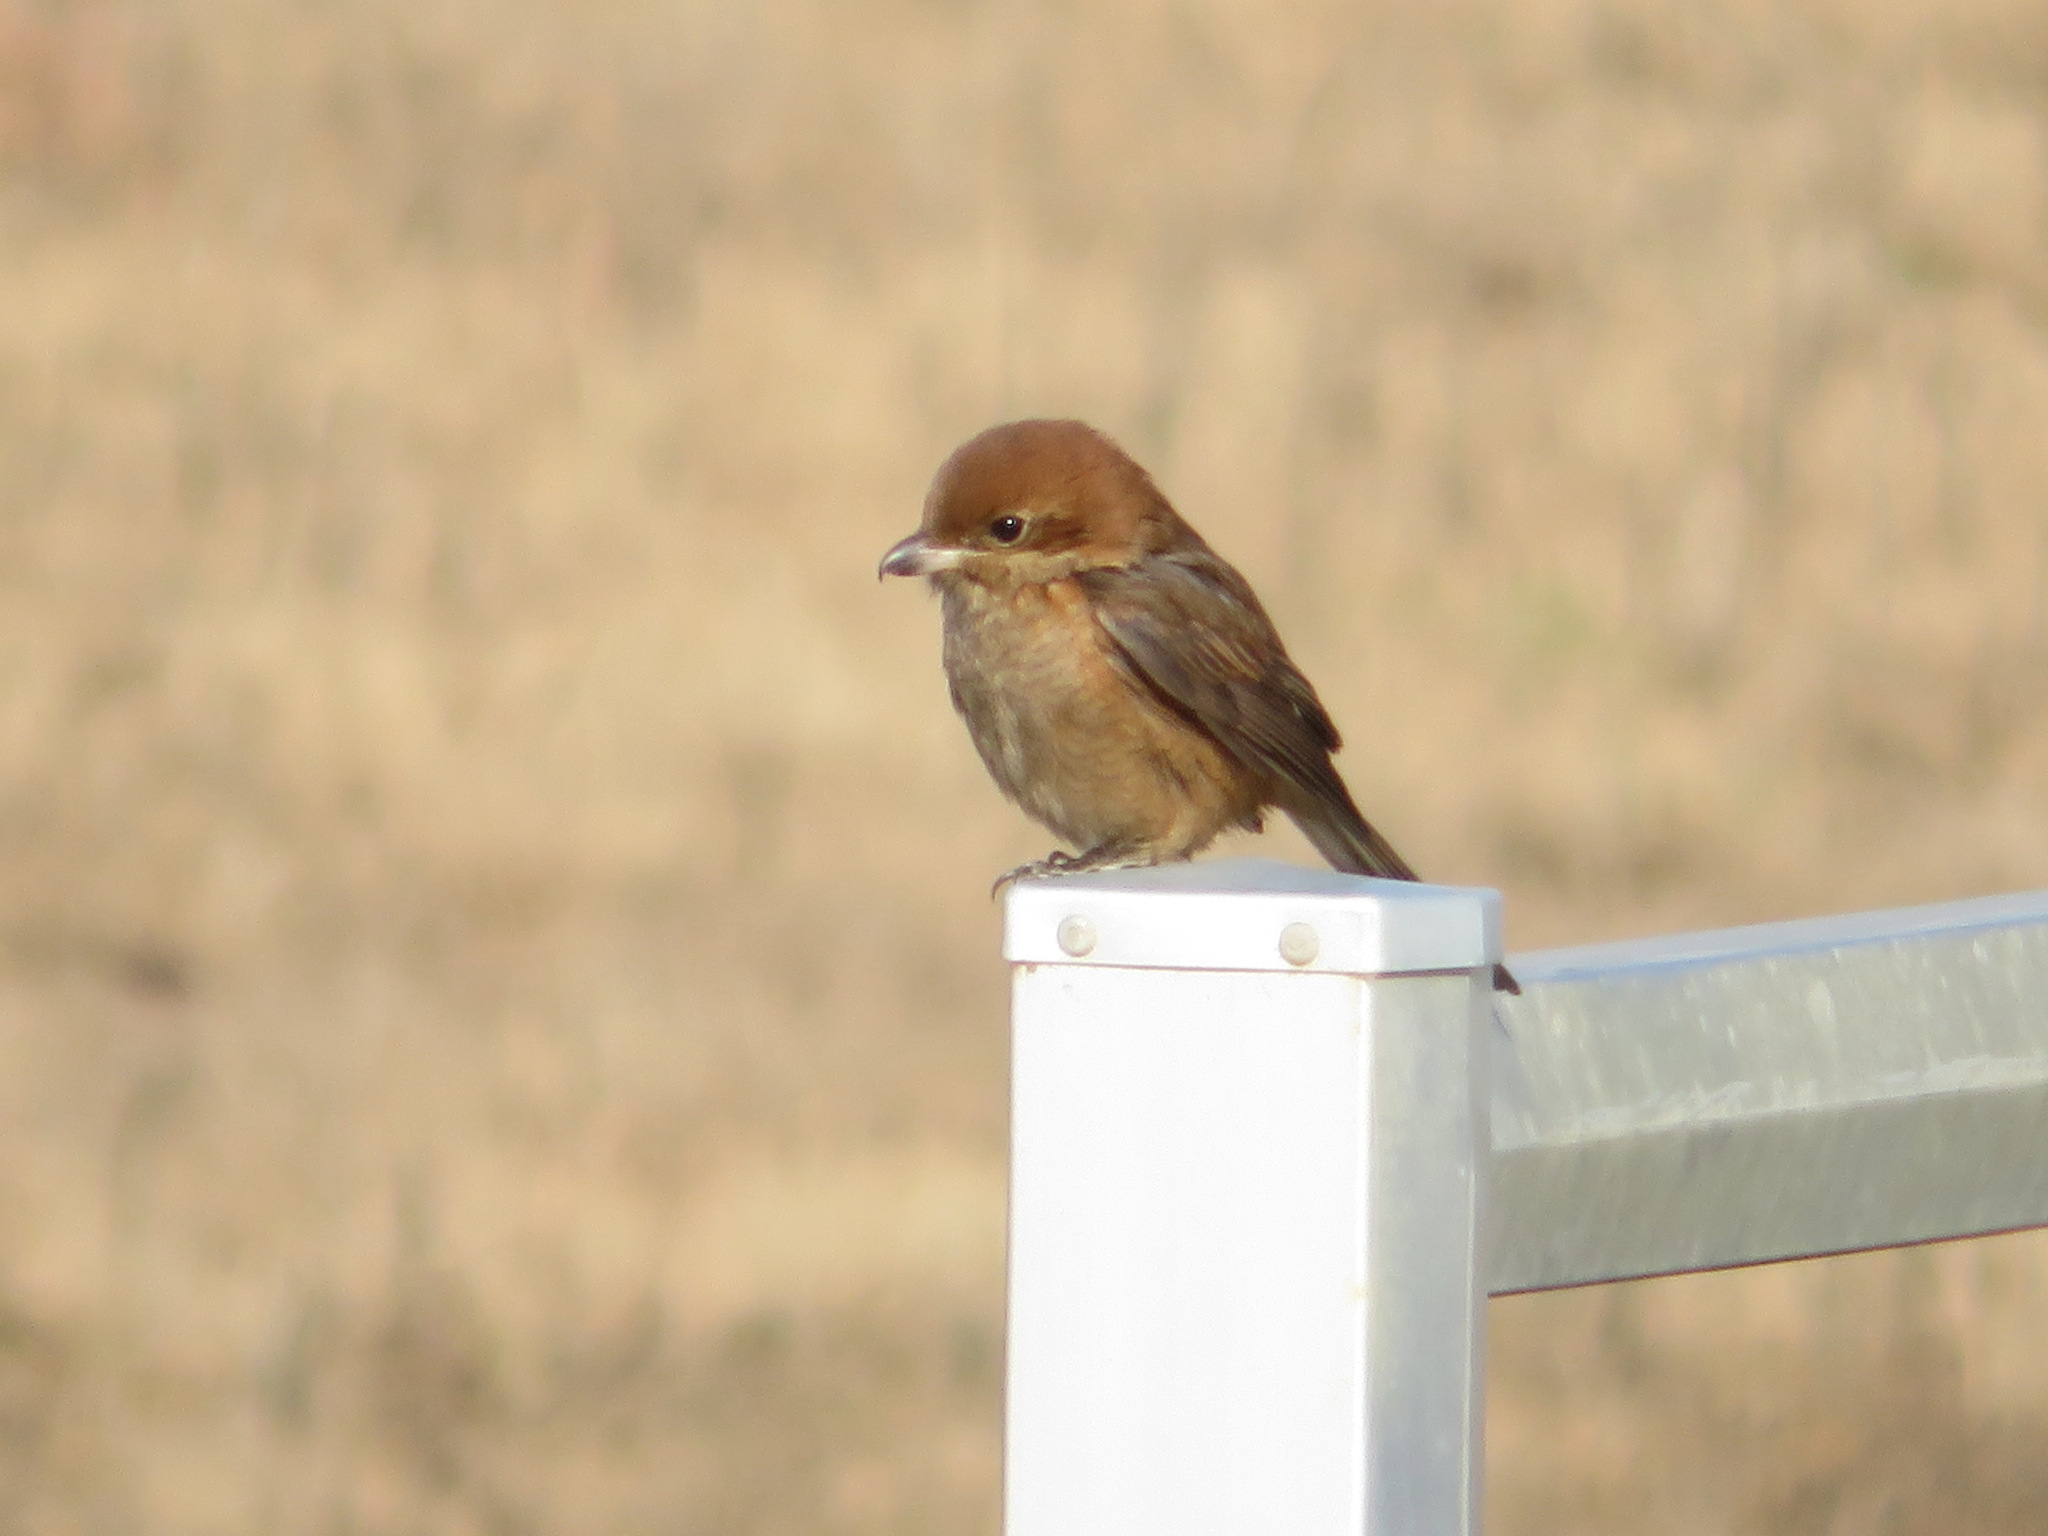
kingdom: Animalia
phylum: Chordata
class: Aves
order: Passeriformes
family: Laniidae
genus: Lanius
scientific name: Lanius bucephalus
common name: Bull-headed shrike
